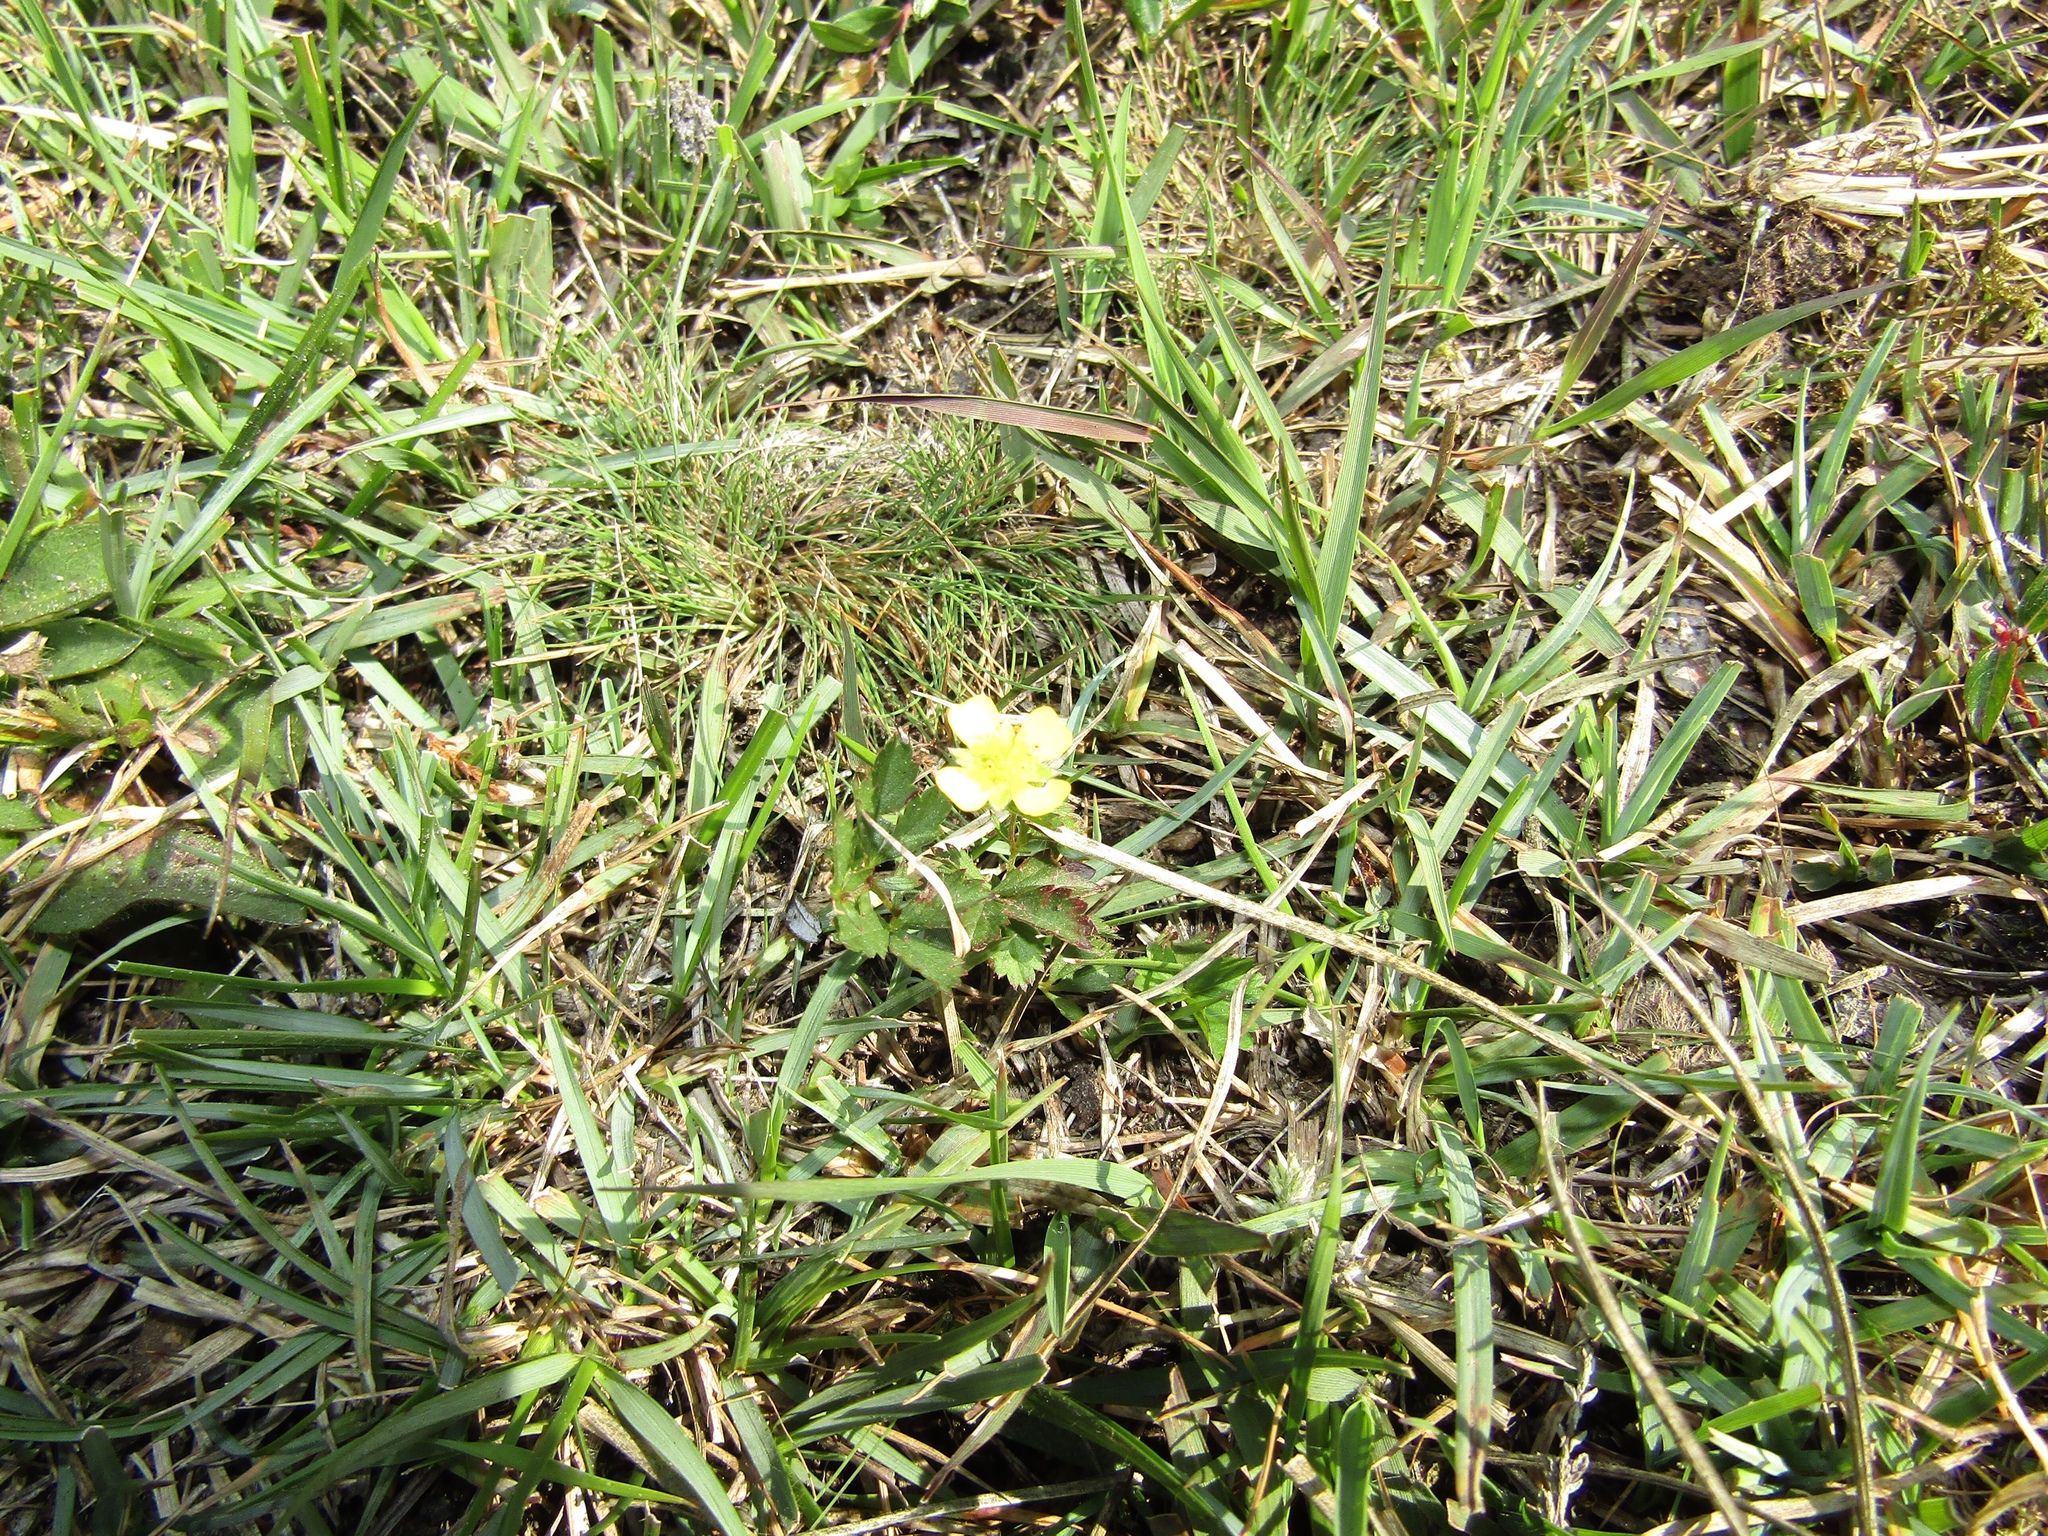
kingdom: Plantae
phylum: Tracheophyta
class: Magnoliopsida
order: Rosales
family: Rosaceae
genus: Potentilla
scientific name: Potentilla erecta
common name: Tormentil
